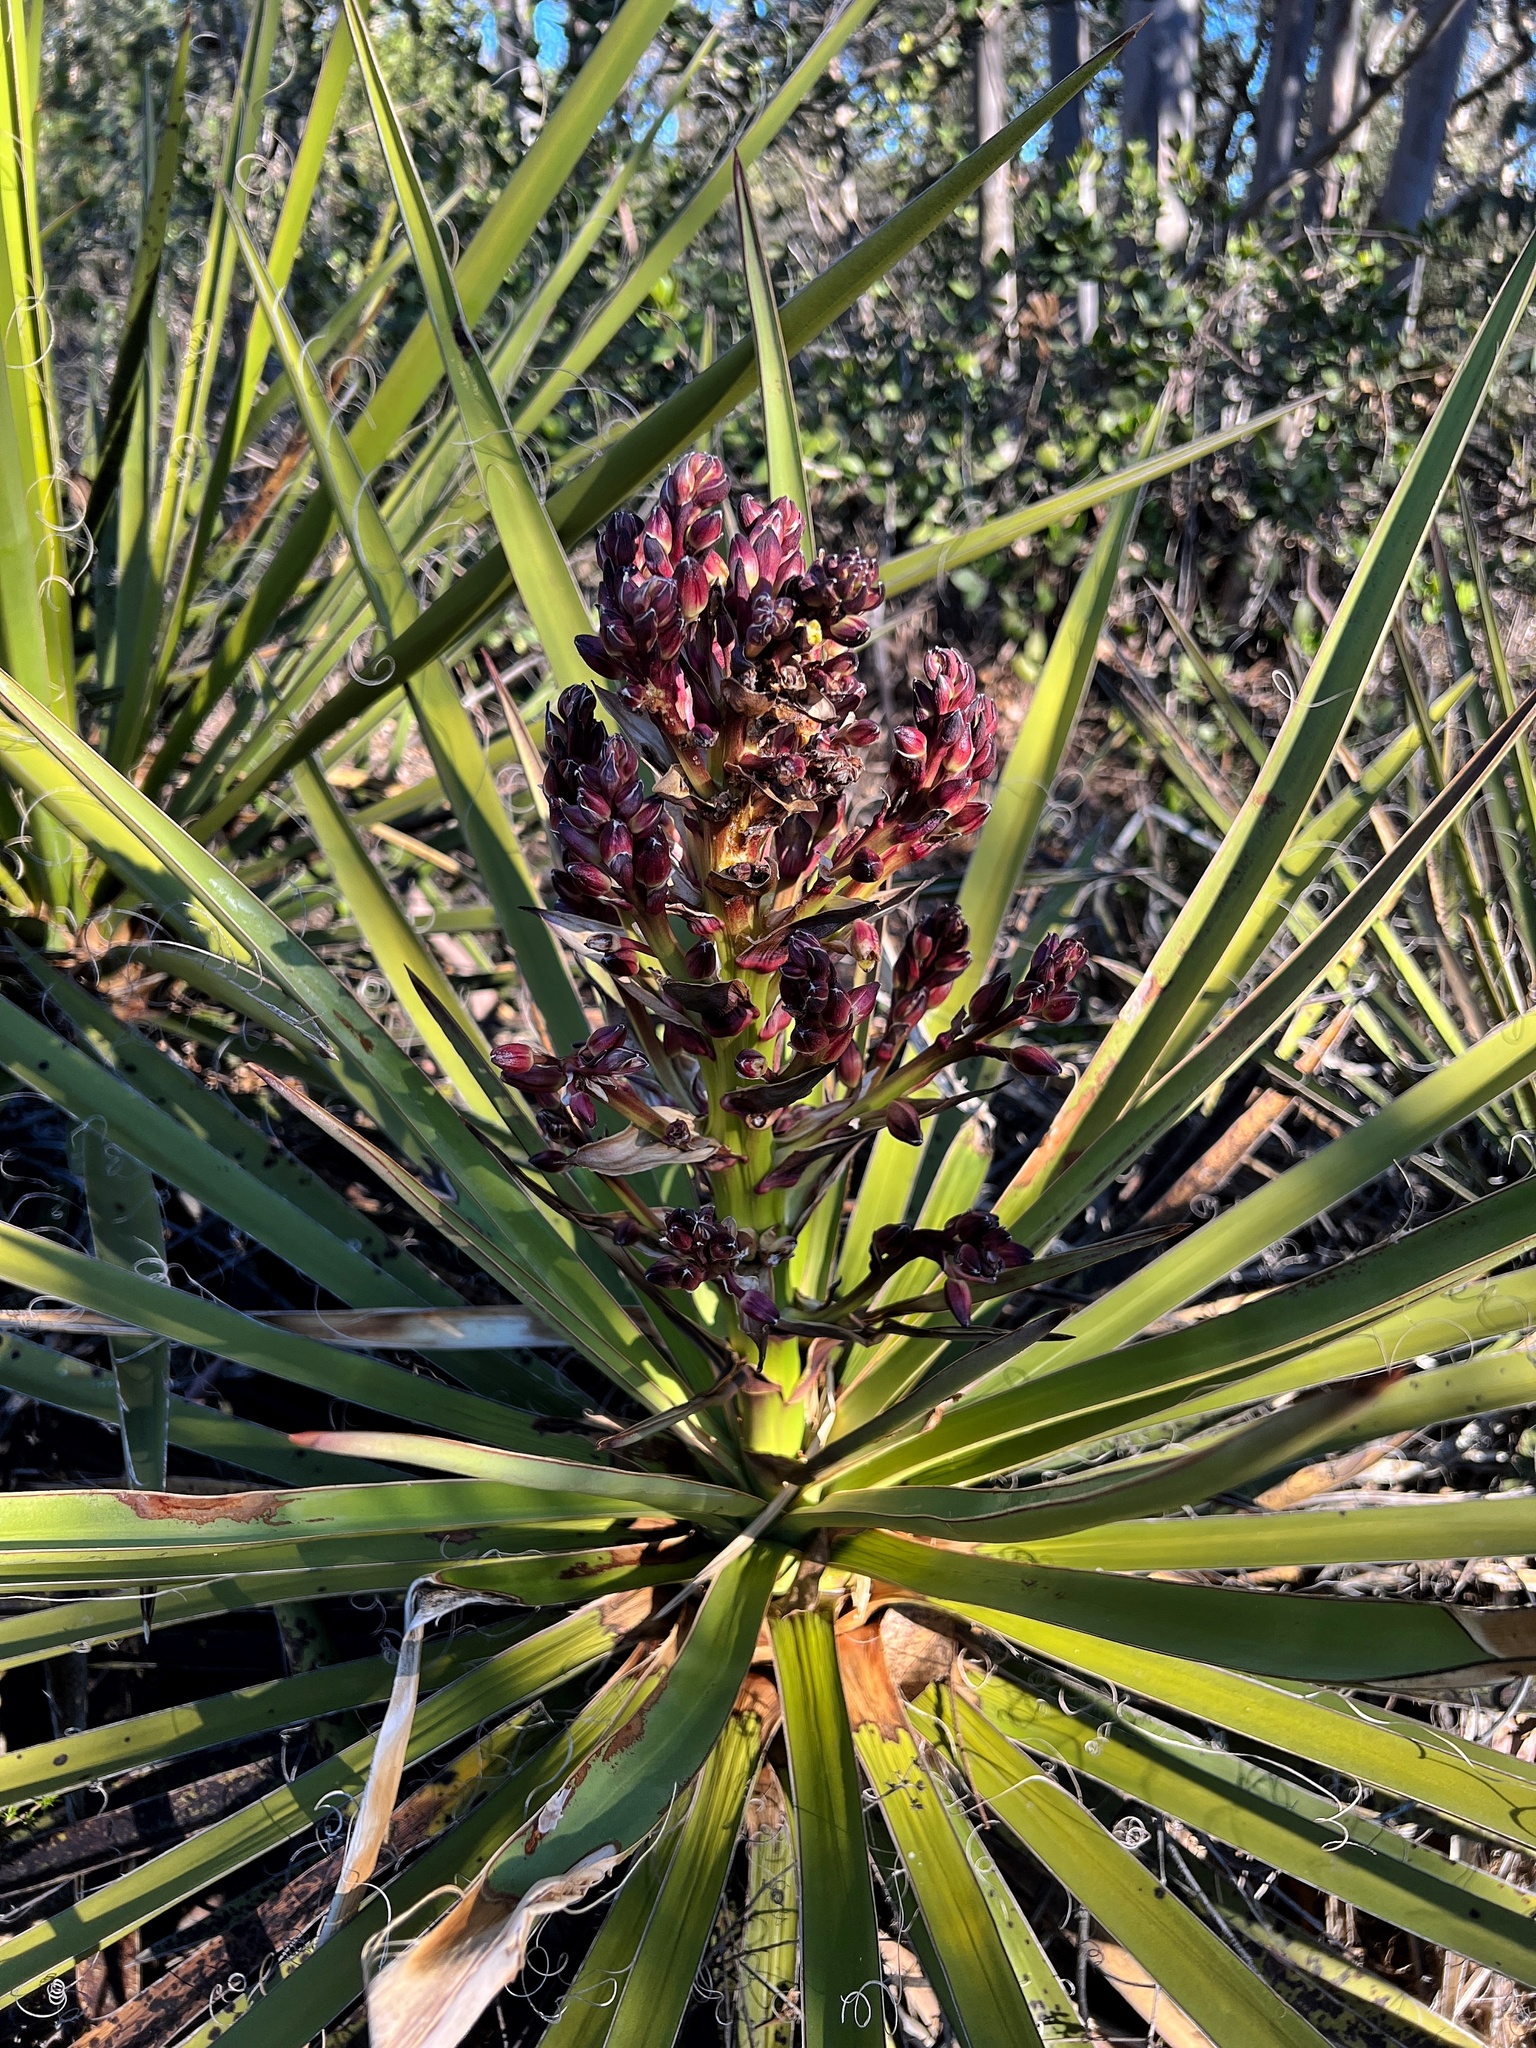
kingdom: Plantae
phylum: Tracheophyta
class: Liliopsida
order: Asparagales
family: Asparagaceae
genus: Yucca
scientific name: Yucca schidigera
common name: Mojave yucca
